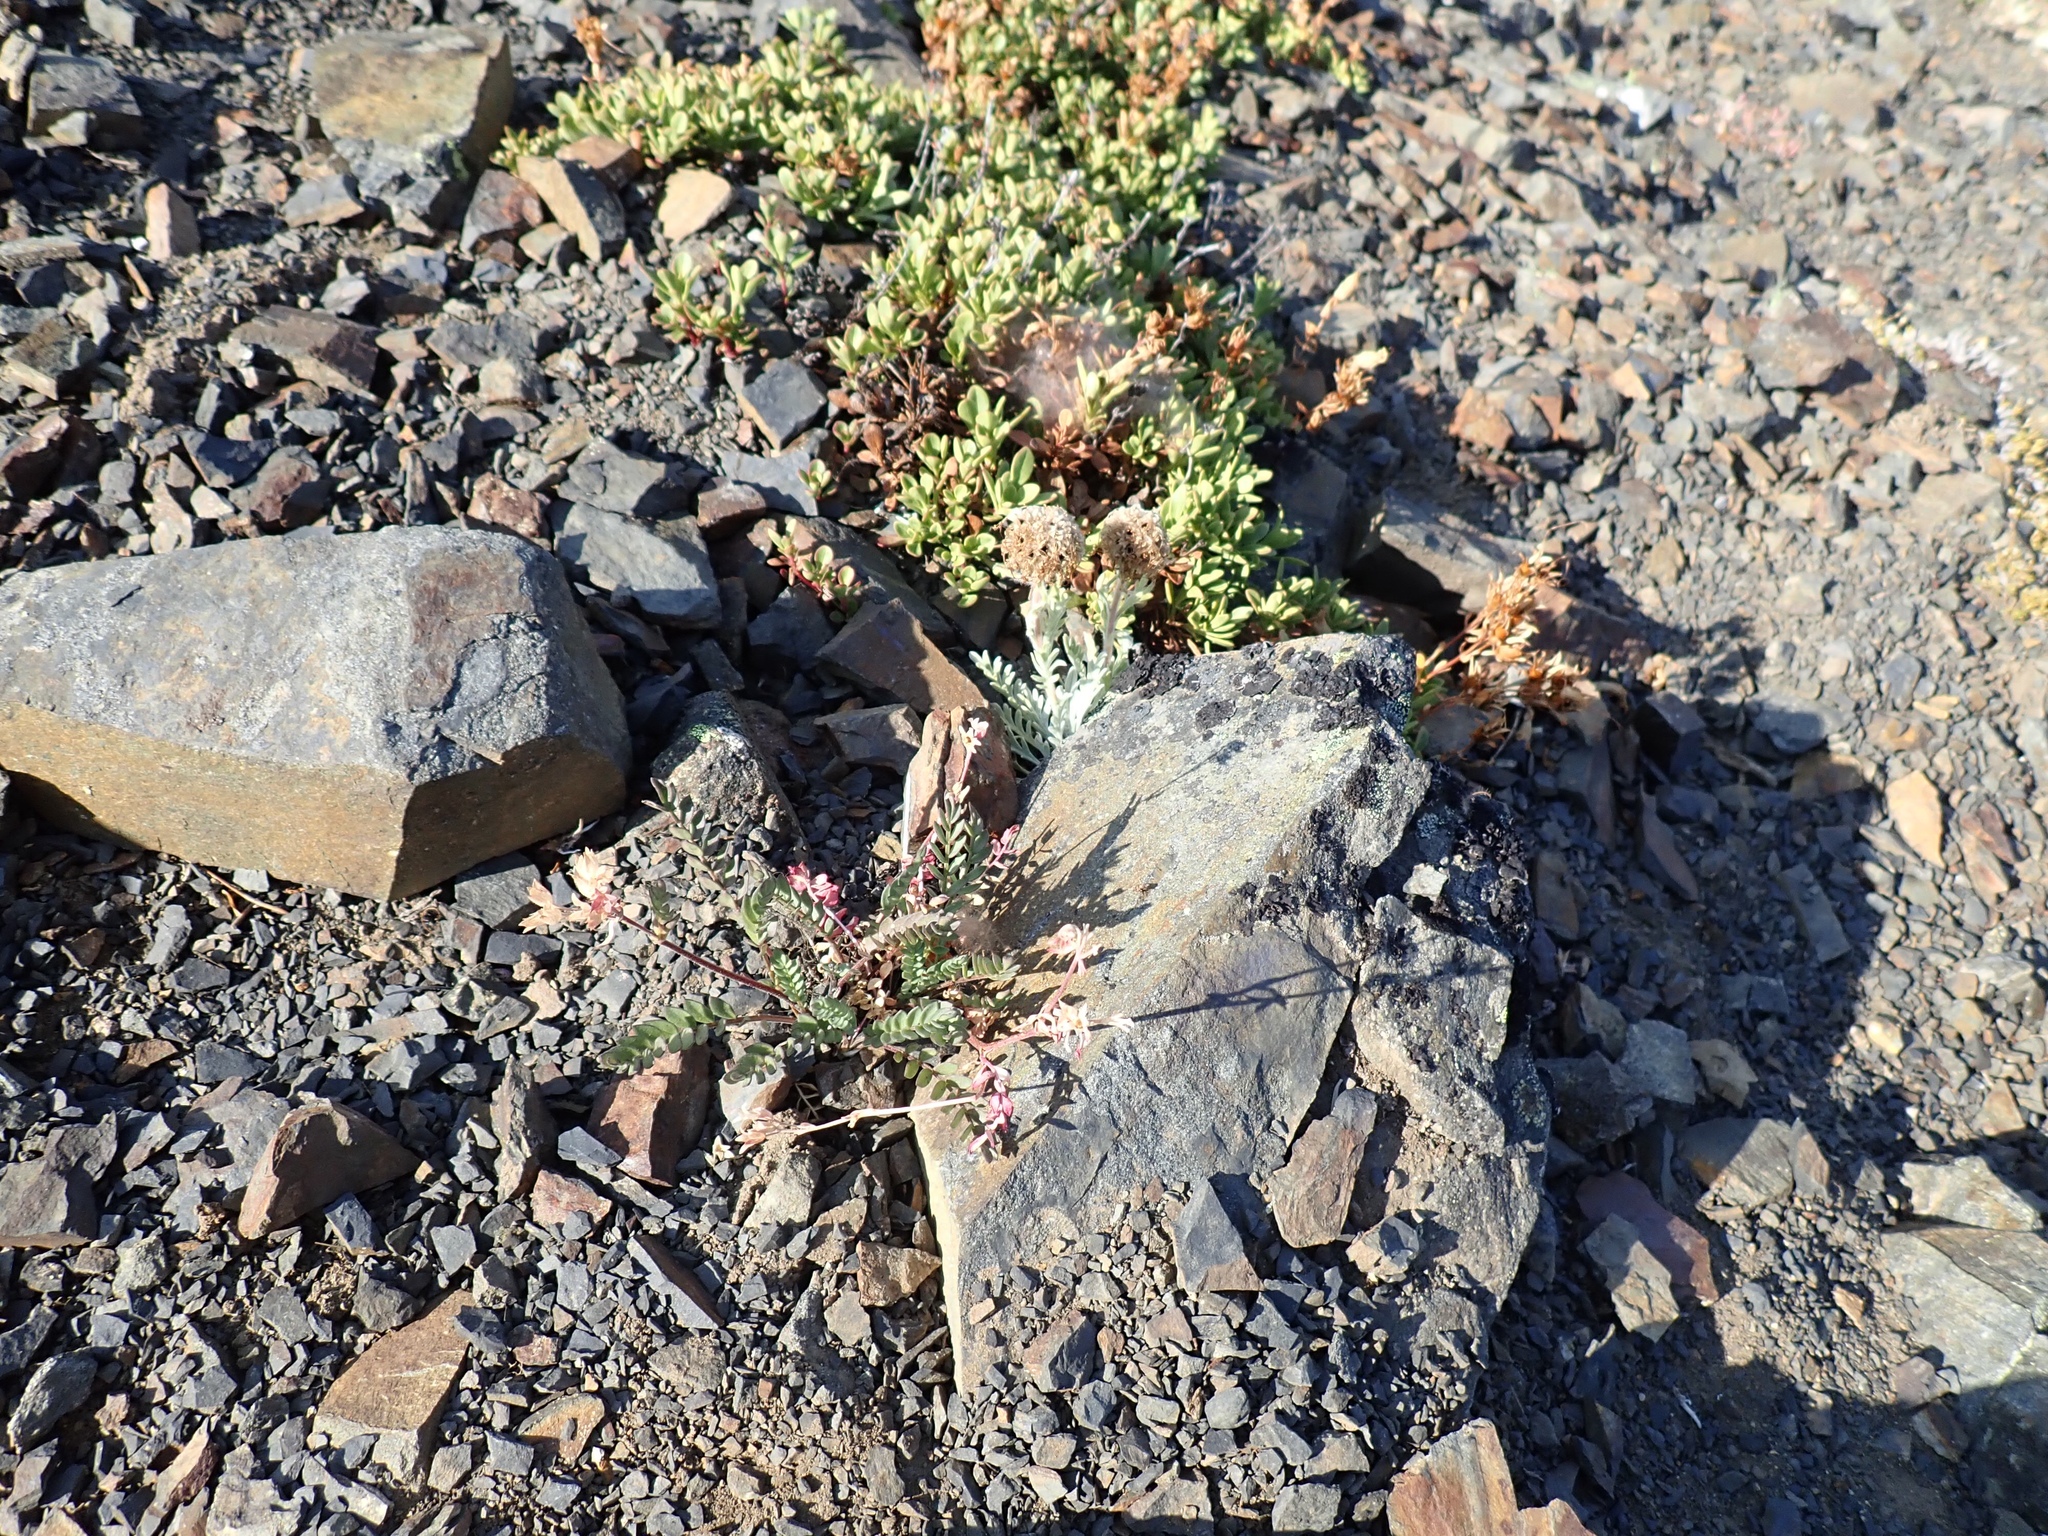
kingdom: Plantae
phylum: Tracheophyta
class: Magnoliopsida
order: Ericales
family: Polemoniaceae
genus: Polemonium
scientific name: Polemonium pulcherrimum
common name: Short jacob's-ladder
